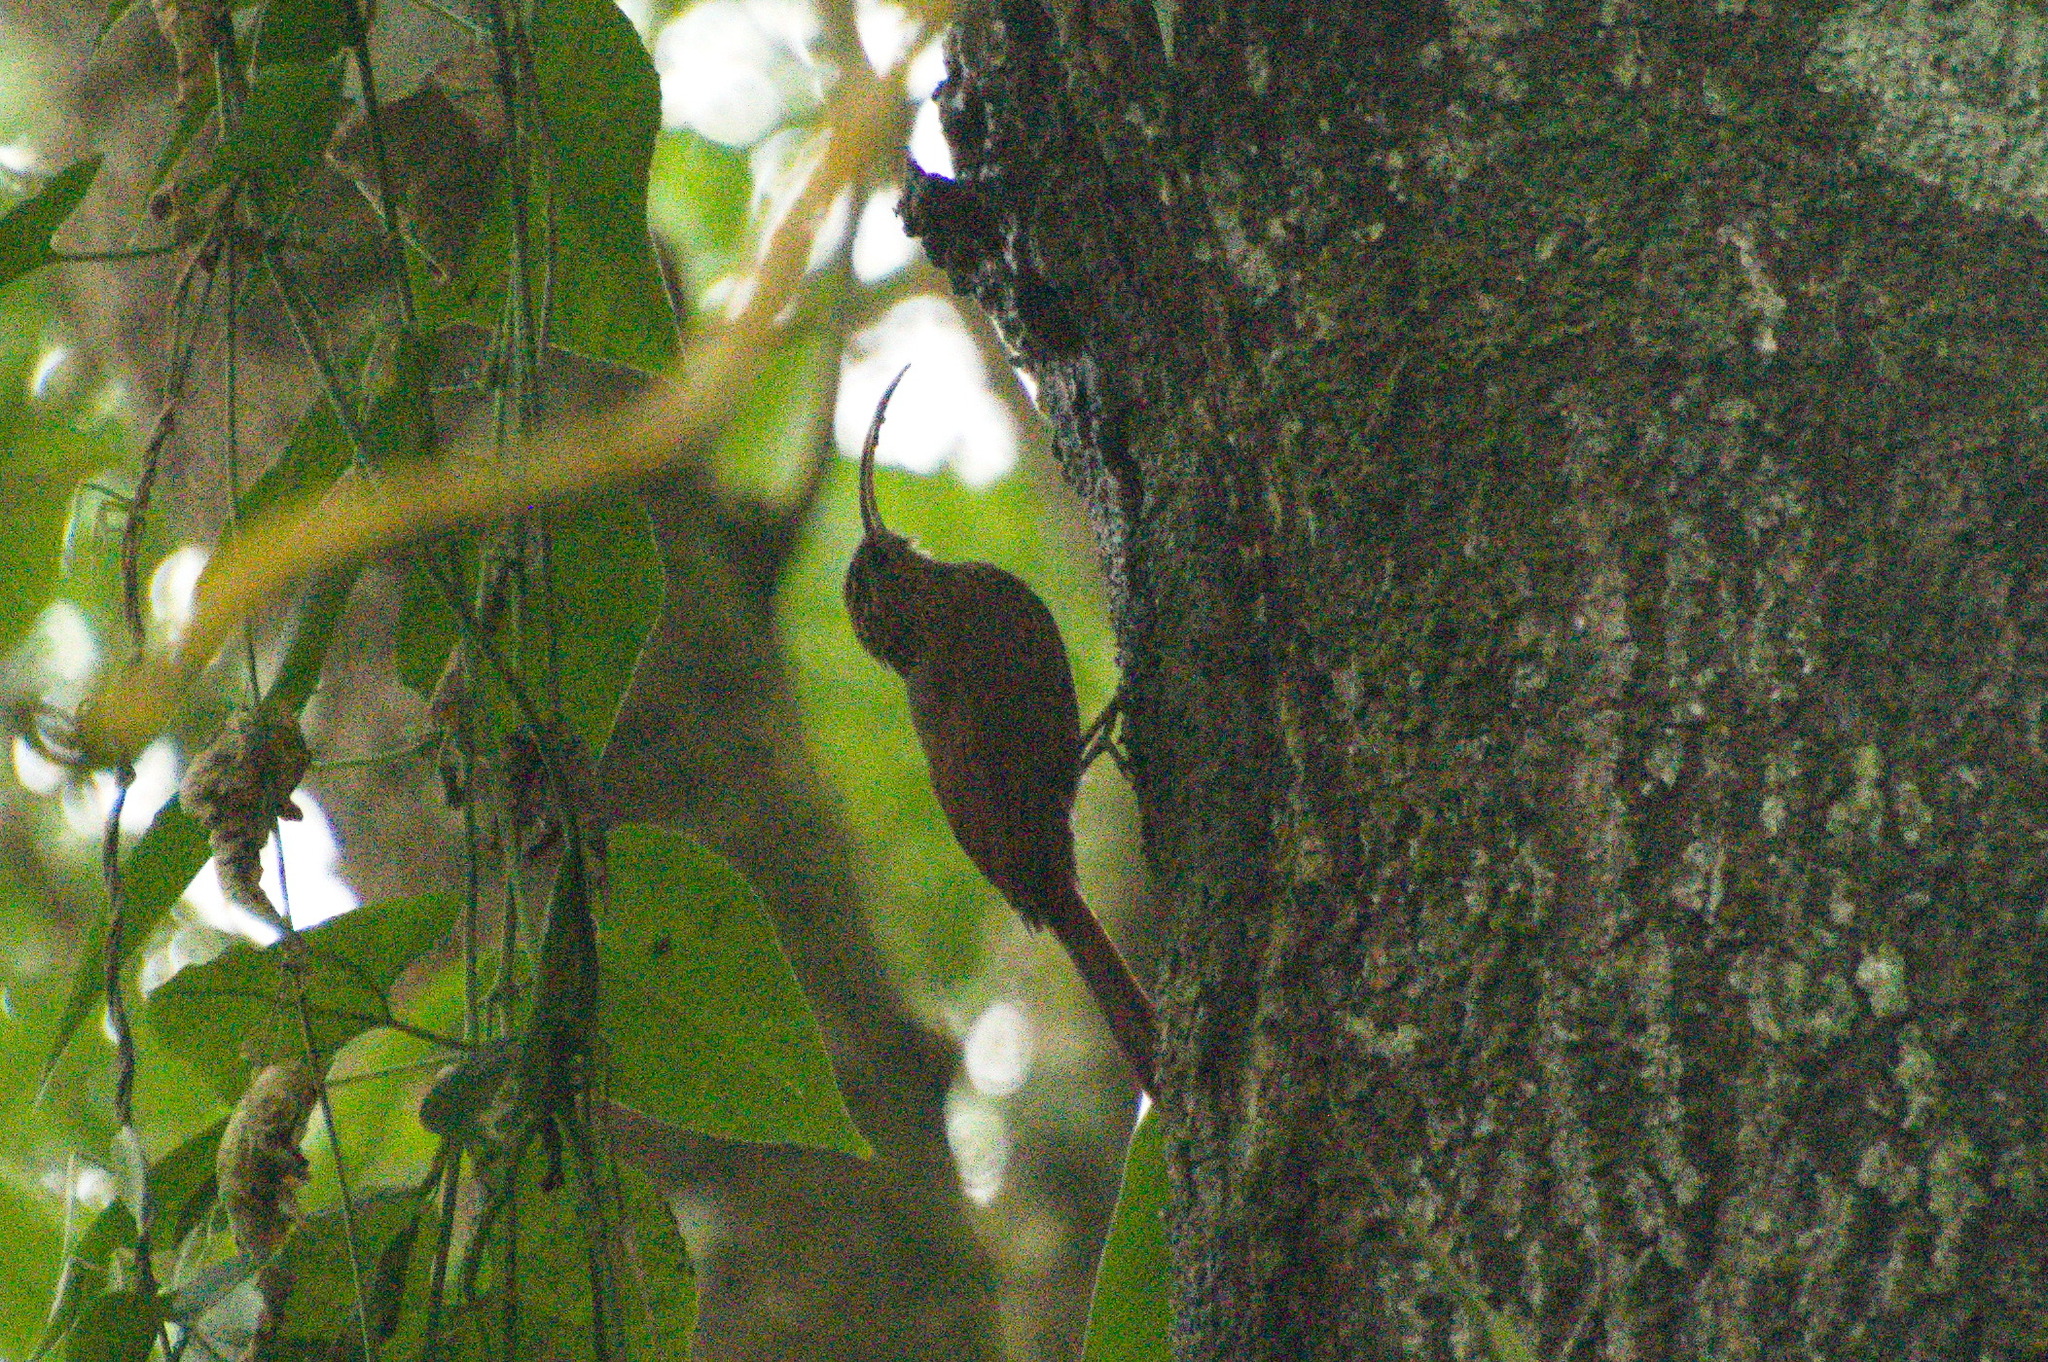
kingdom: Animalia
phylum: Chordata
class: Aves
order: Passeriformes
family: Furnariidae
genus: Campylorhamphus
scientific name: Campylorhamphus pusillus
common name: Brown-billed scythebill
